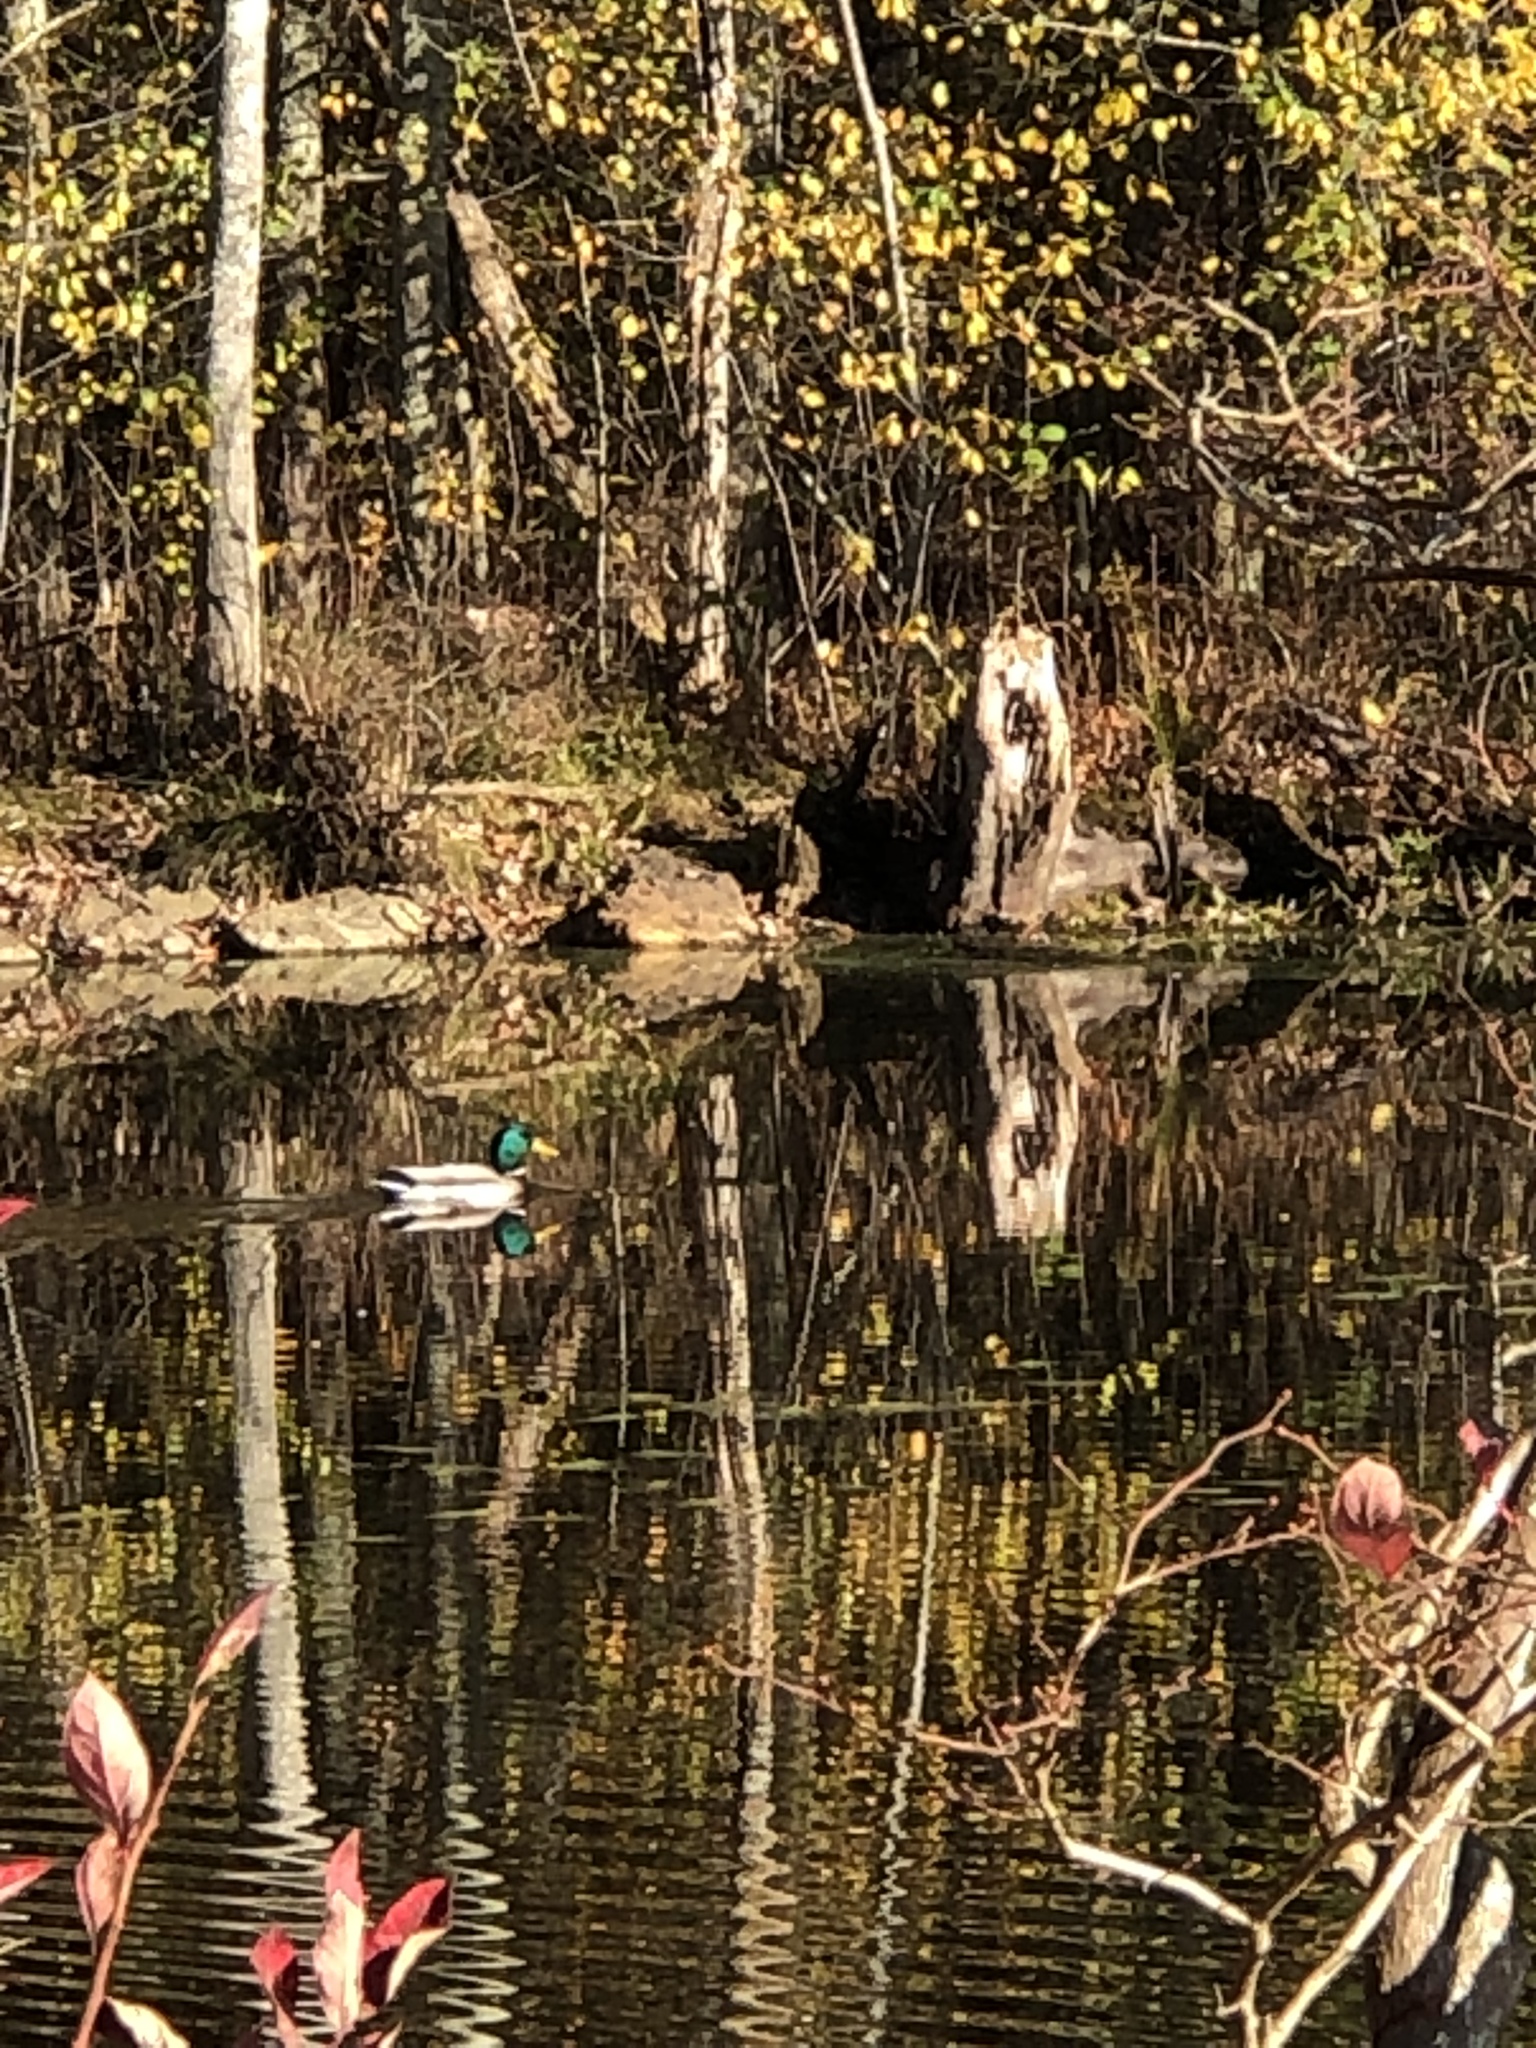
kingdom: Animalia
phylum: Chordata
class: Aves
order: Anseriformes
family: Anatidae
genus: Anas
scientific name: Anas platyrhynchos
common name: Mallard
